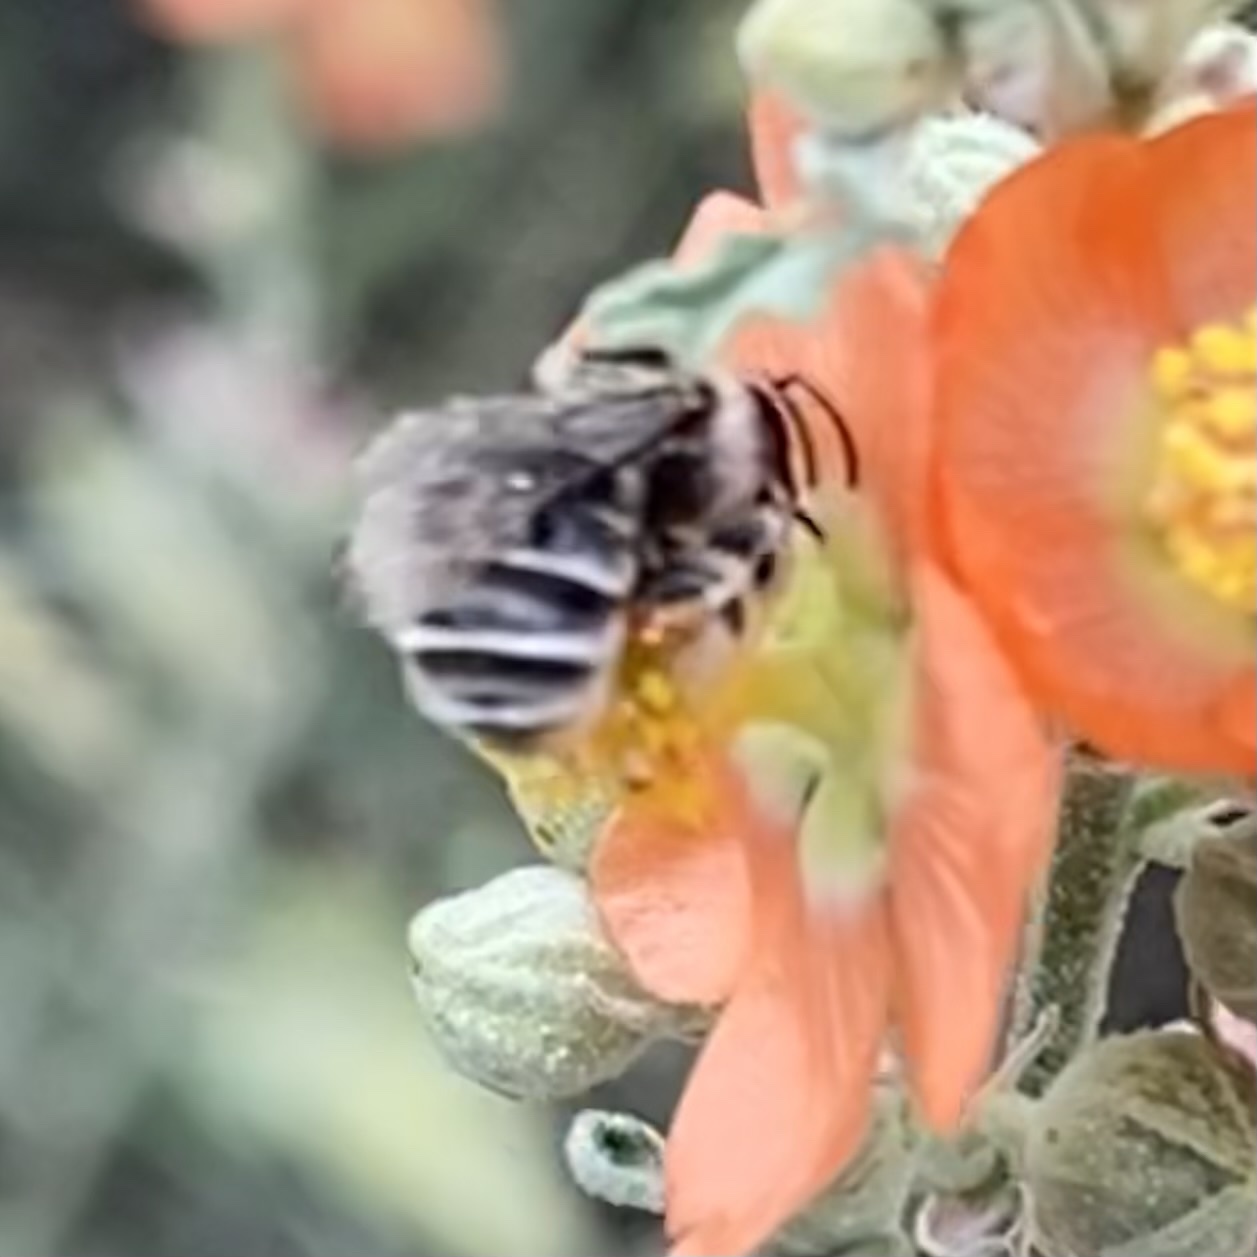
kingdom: Animalia
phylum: Arthropoda
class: Insecta
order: Hymenoptera
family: Apidae
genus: Exomalopsis
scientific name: Exomalopsis
